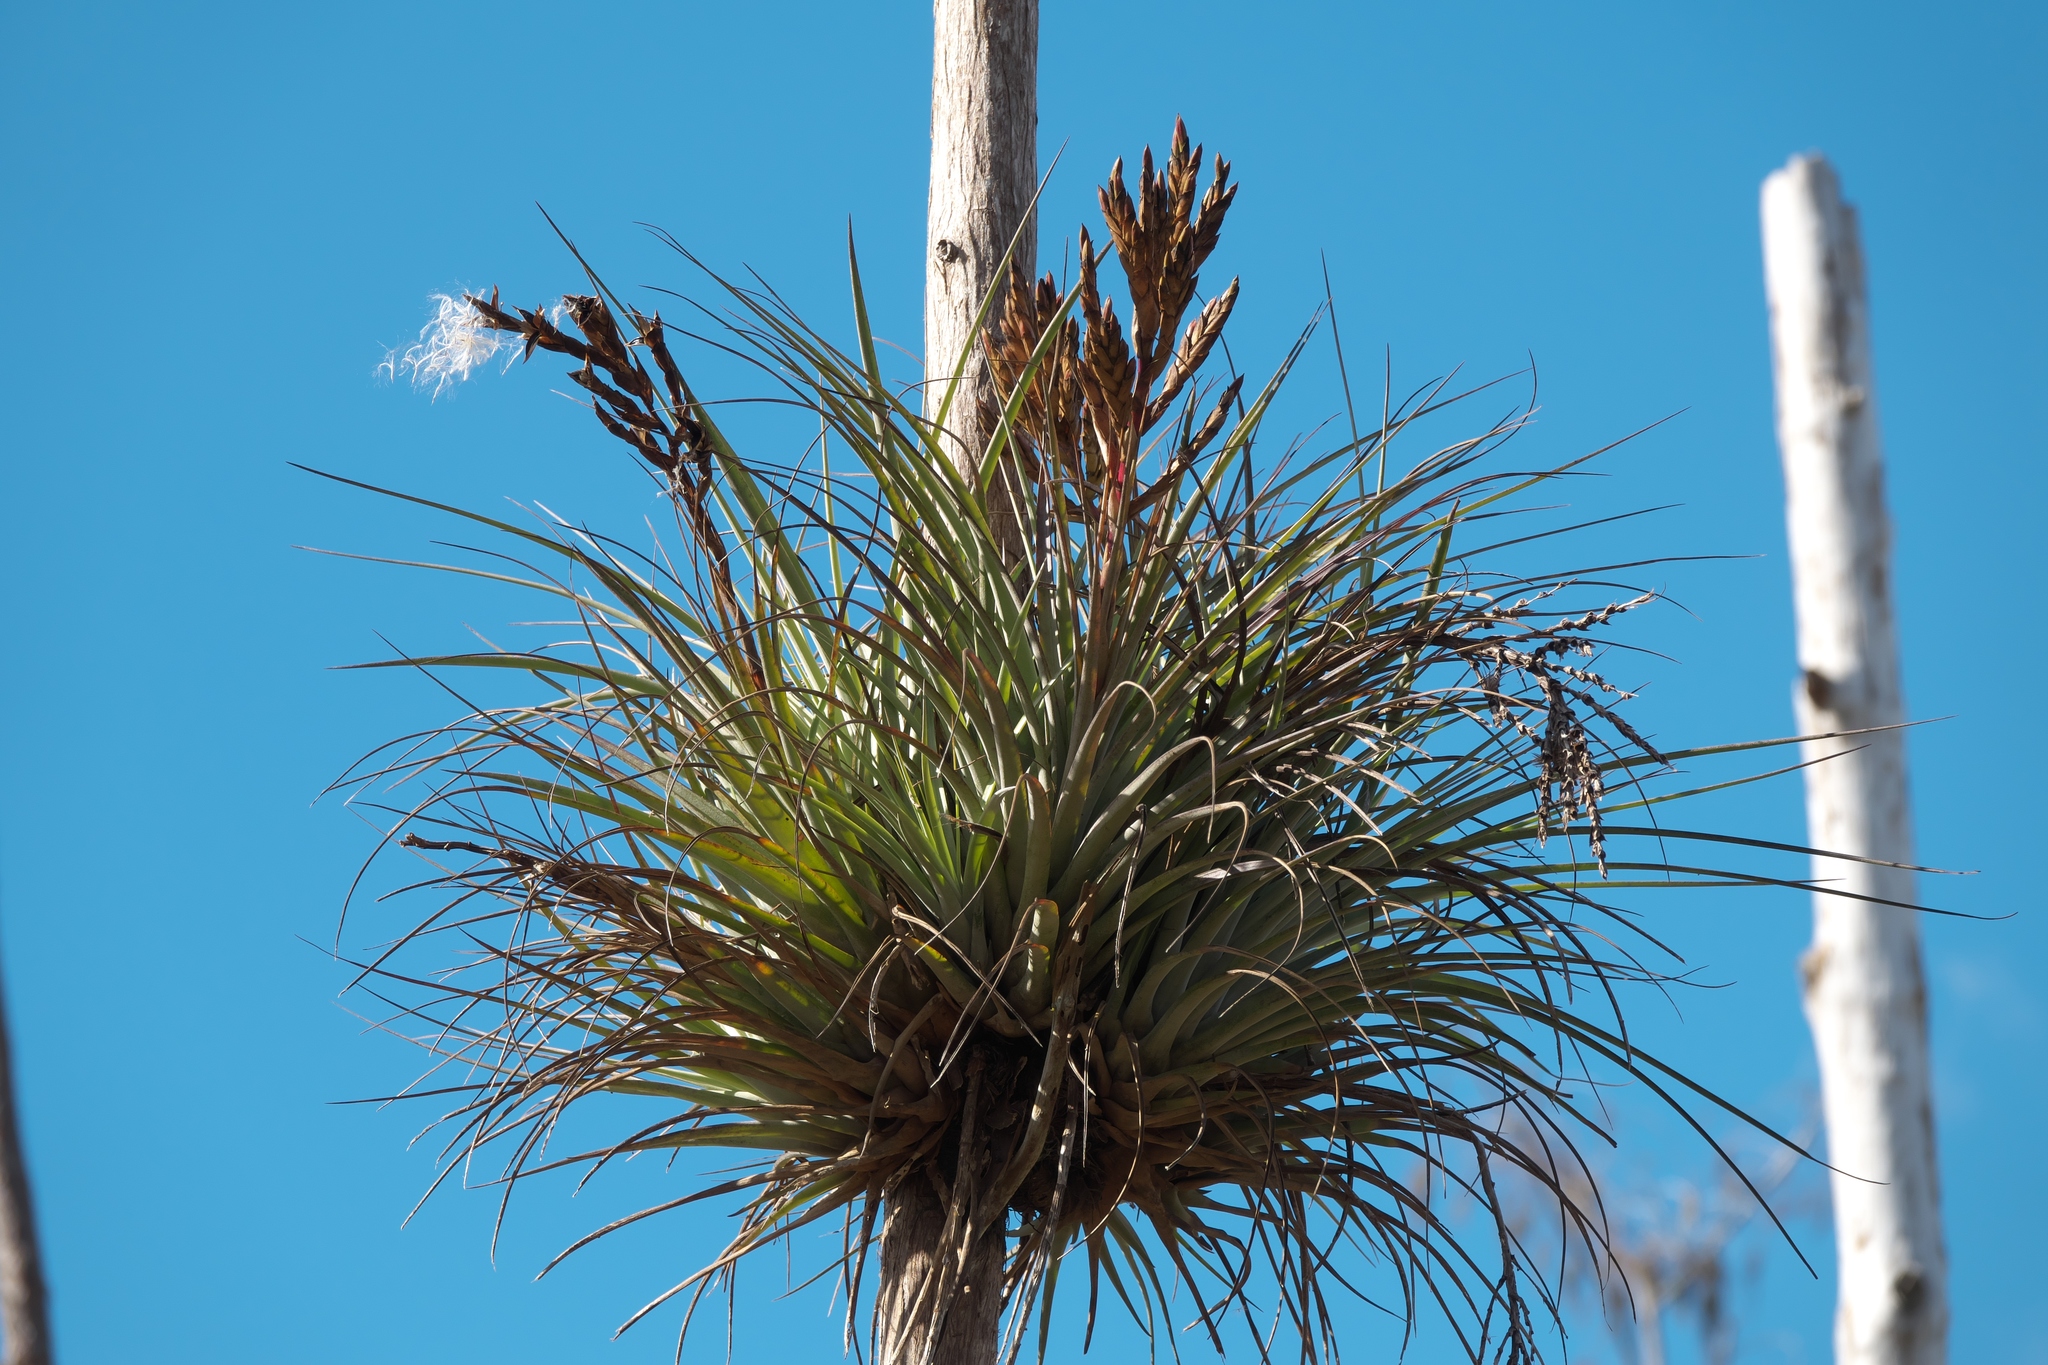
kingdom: Plantae
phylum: Tracheophyta
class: Liliopsida
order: Poales
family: Bromeliaceae
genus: Tillandsia
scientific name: Tillandsia fasciculata
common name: Giant airplant
